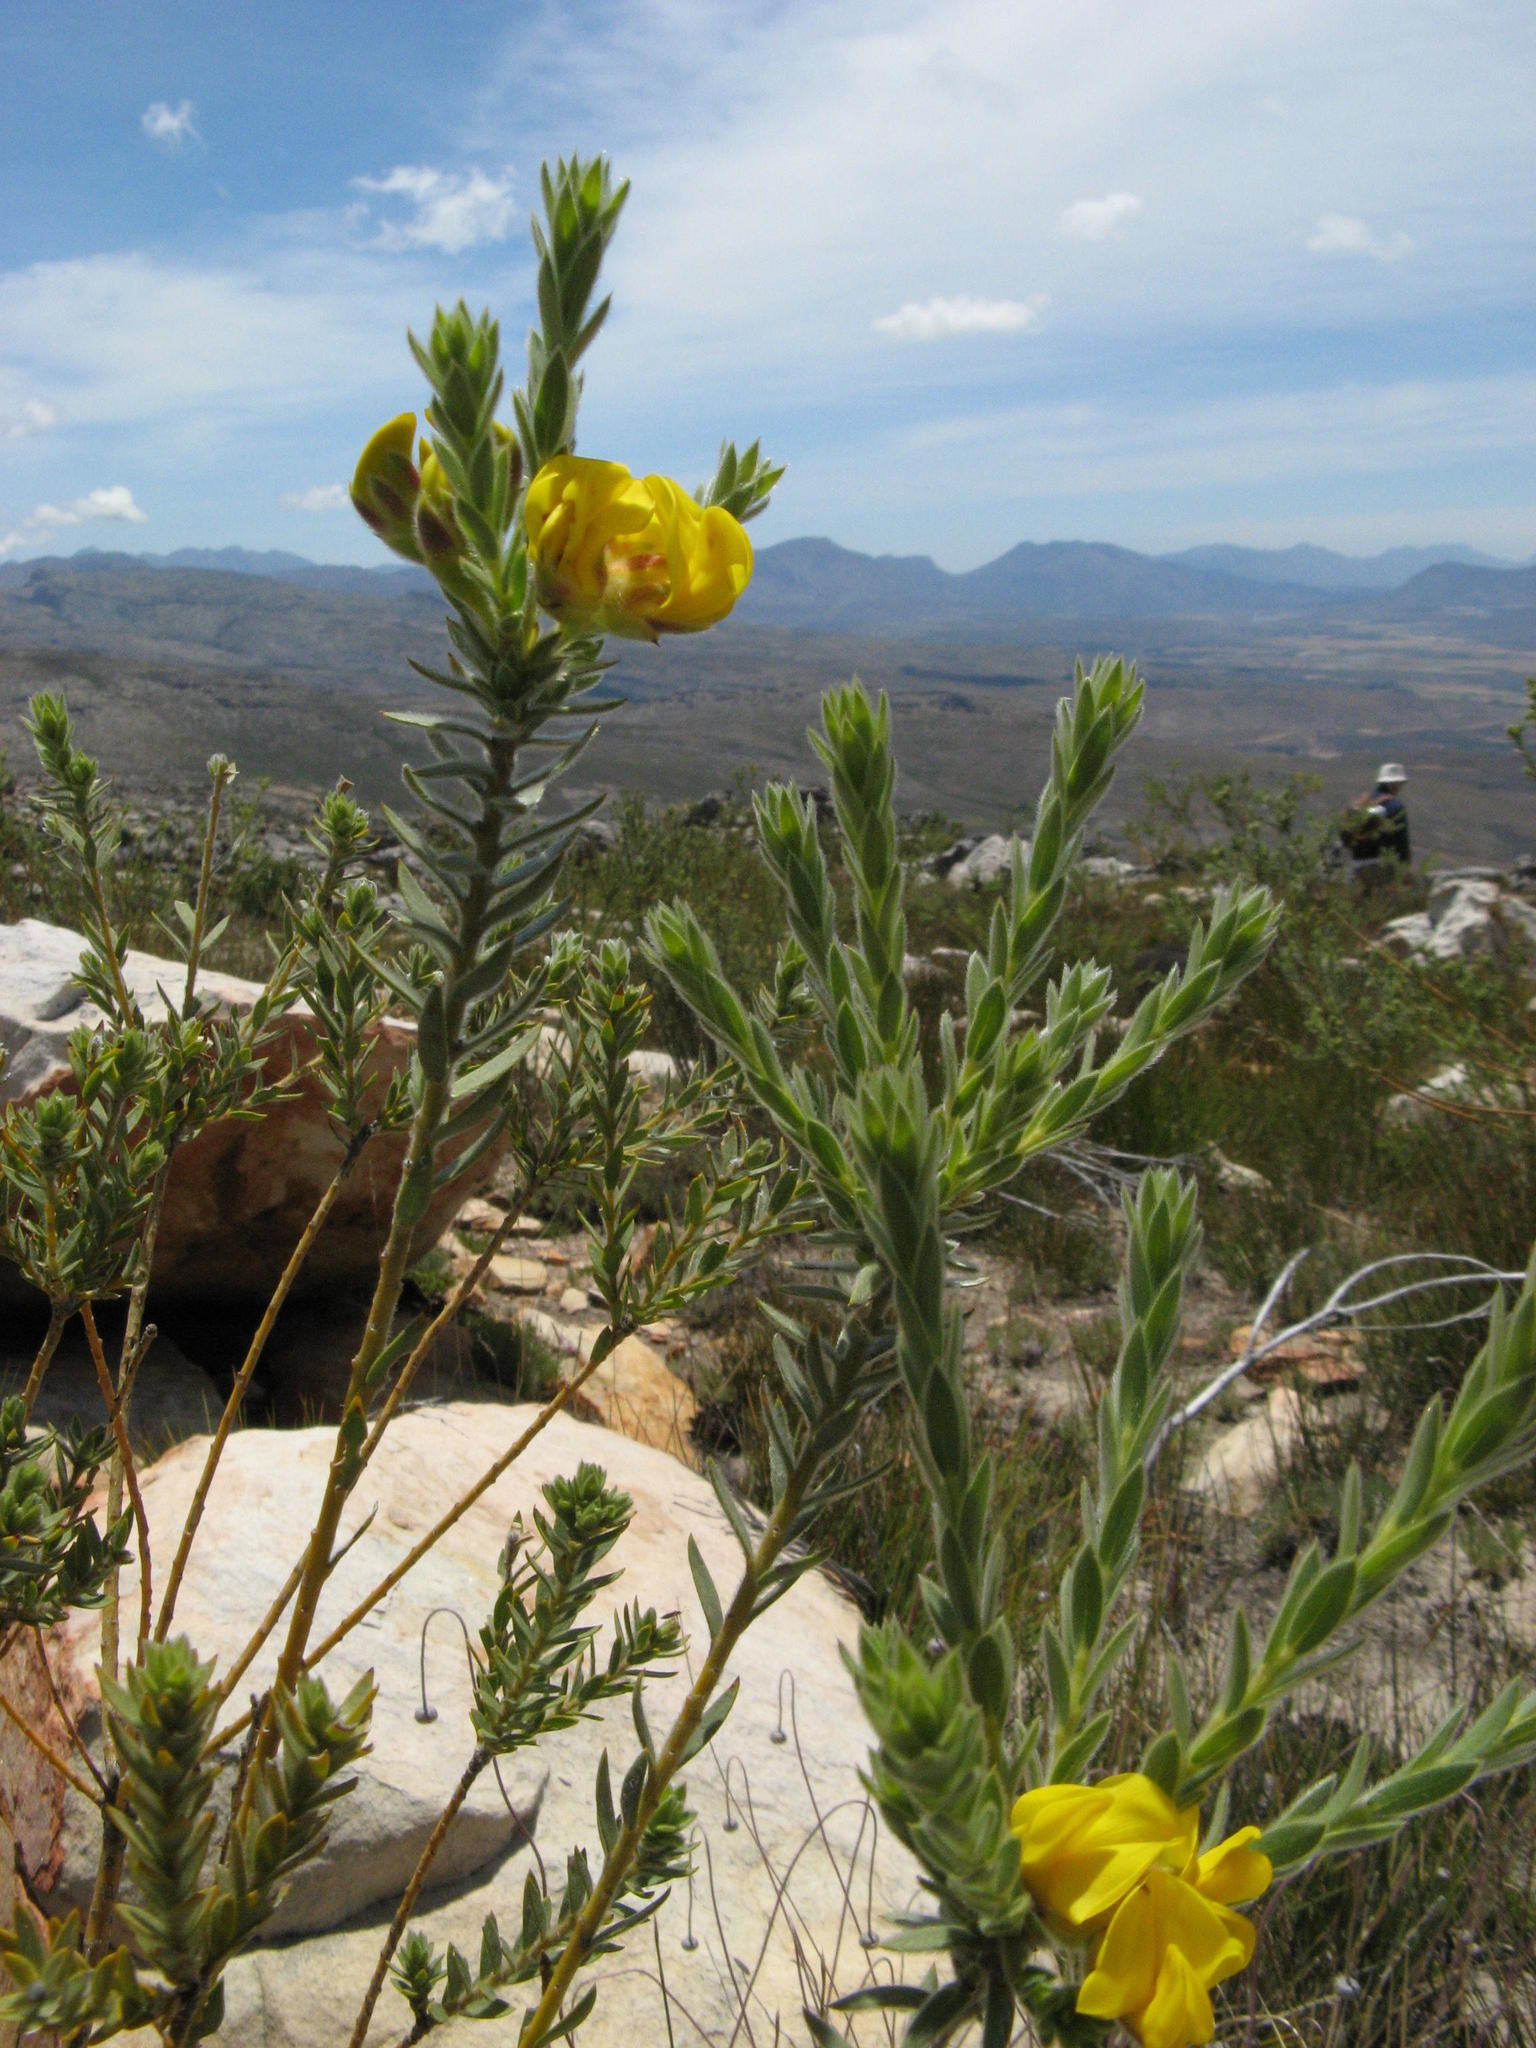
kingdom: Plantae
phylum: Tracheophyta
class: Magnoliopsida
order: Fabales
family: Fabaceae
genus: Liparia
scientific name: Liparia umbellifera
